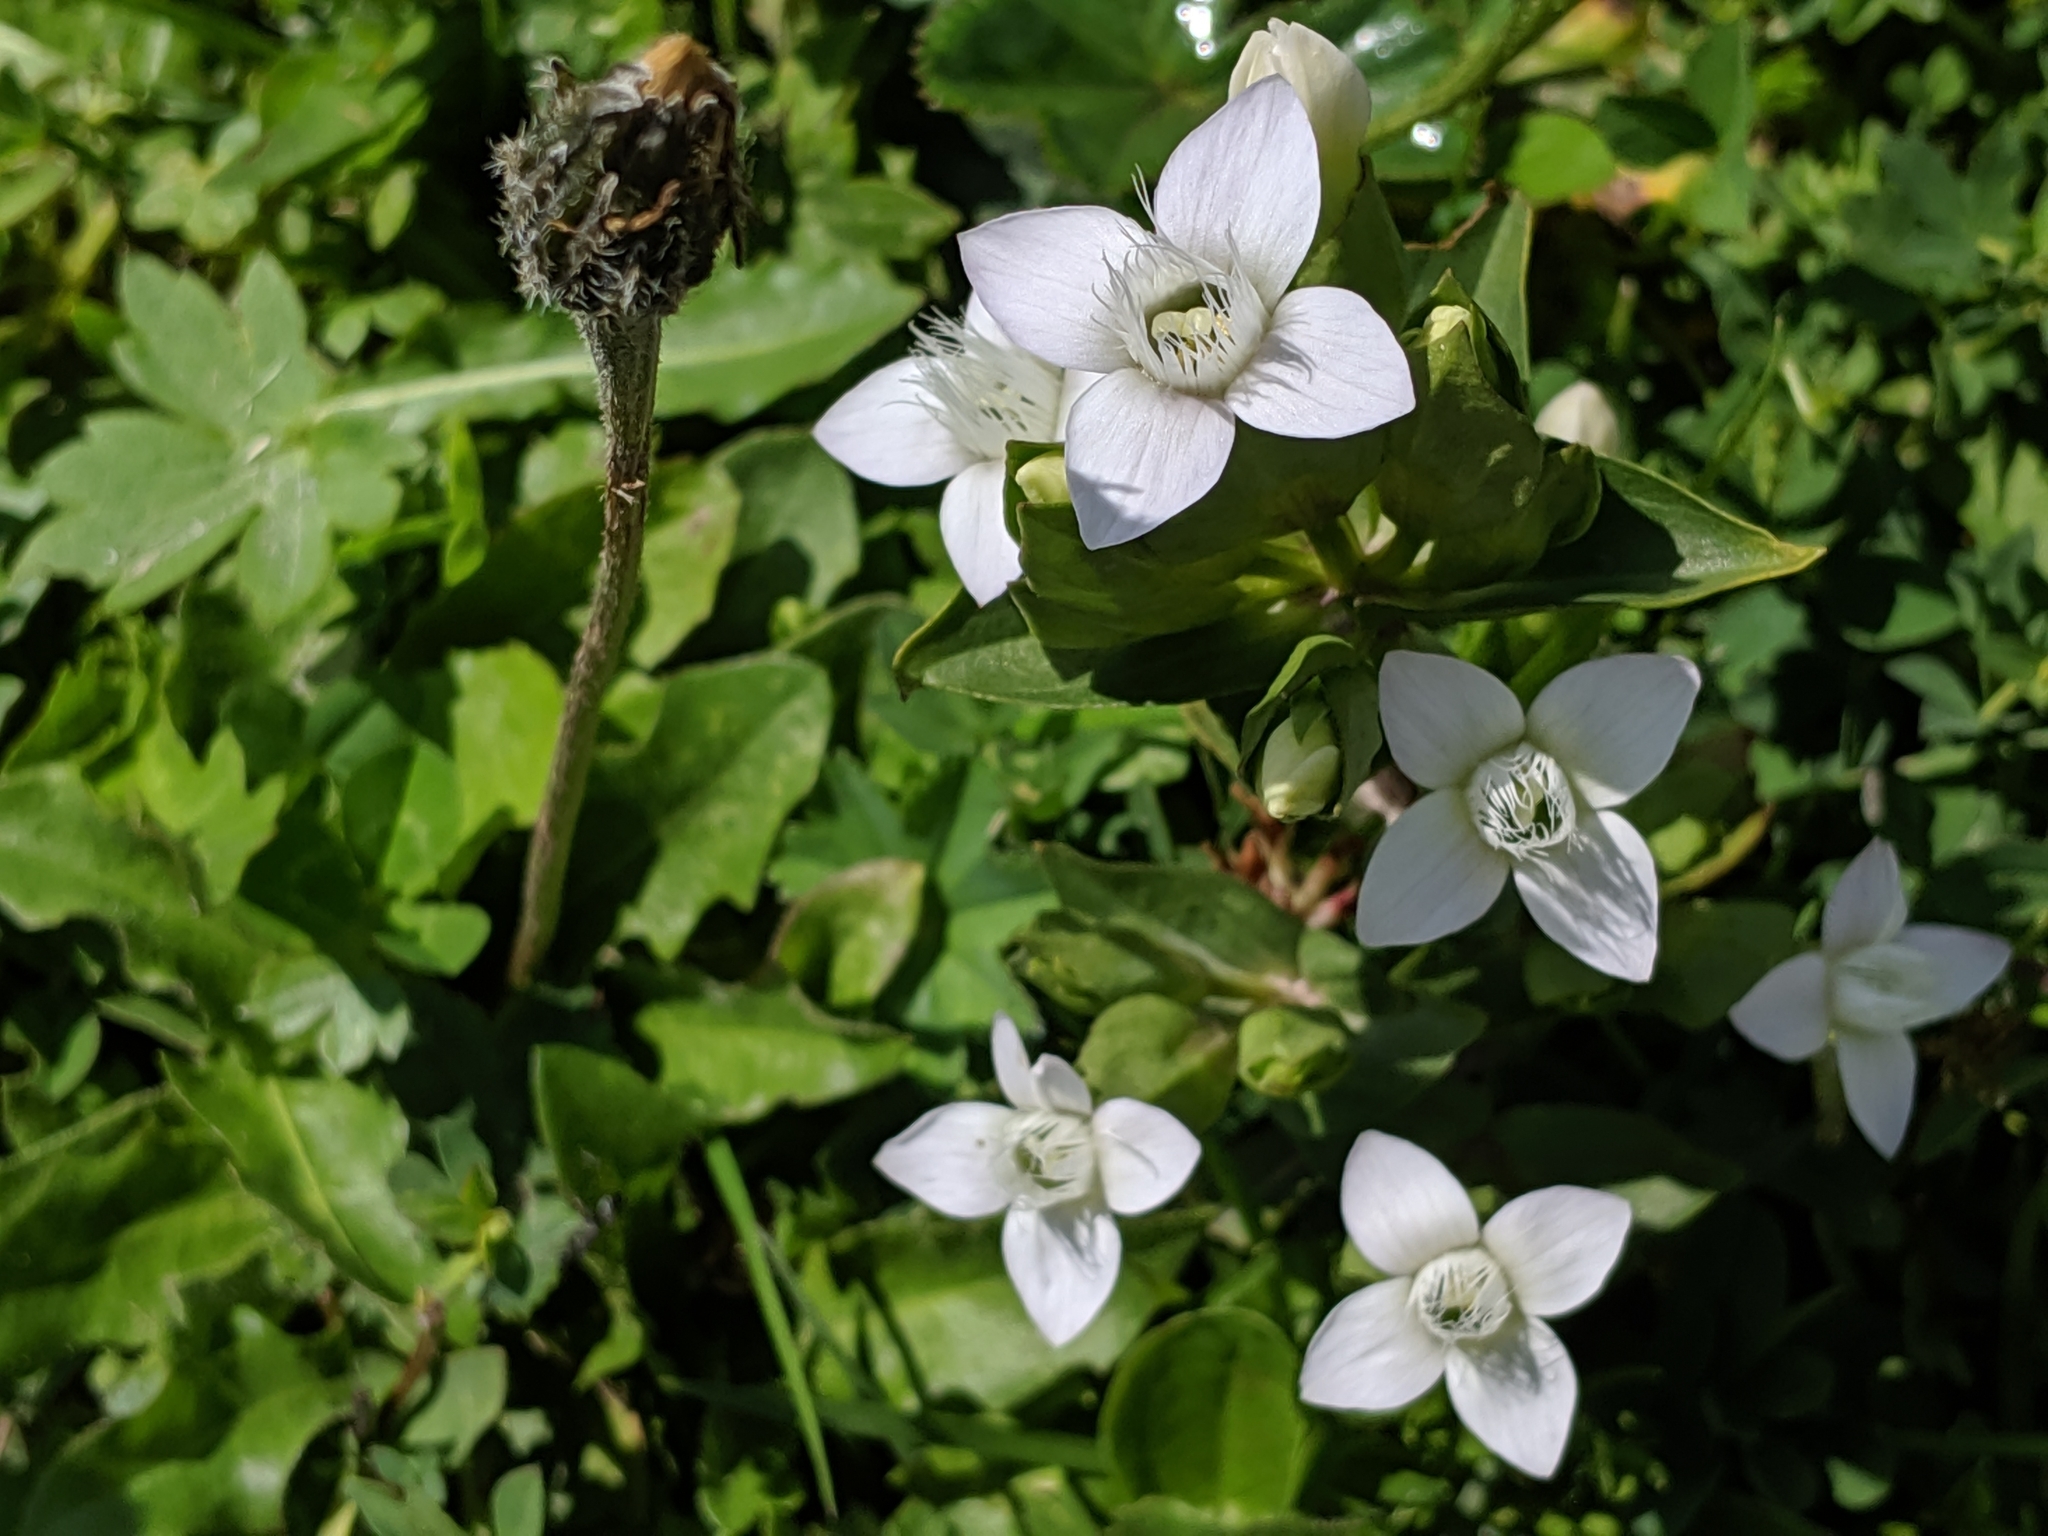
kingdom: Plantae
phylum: Tracheophyta
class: Magnoliopsida
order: Gentianales
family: Gentianaceae
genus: Gentianella
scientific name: Gentianella campestris
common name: Field gentian
